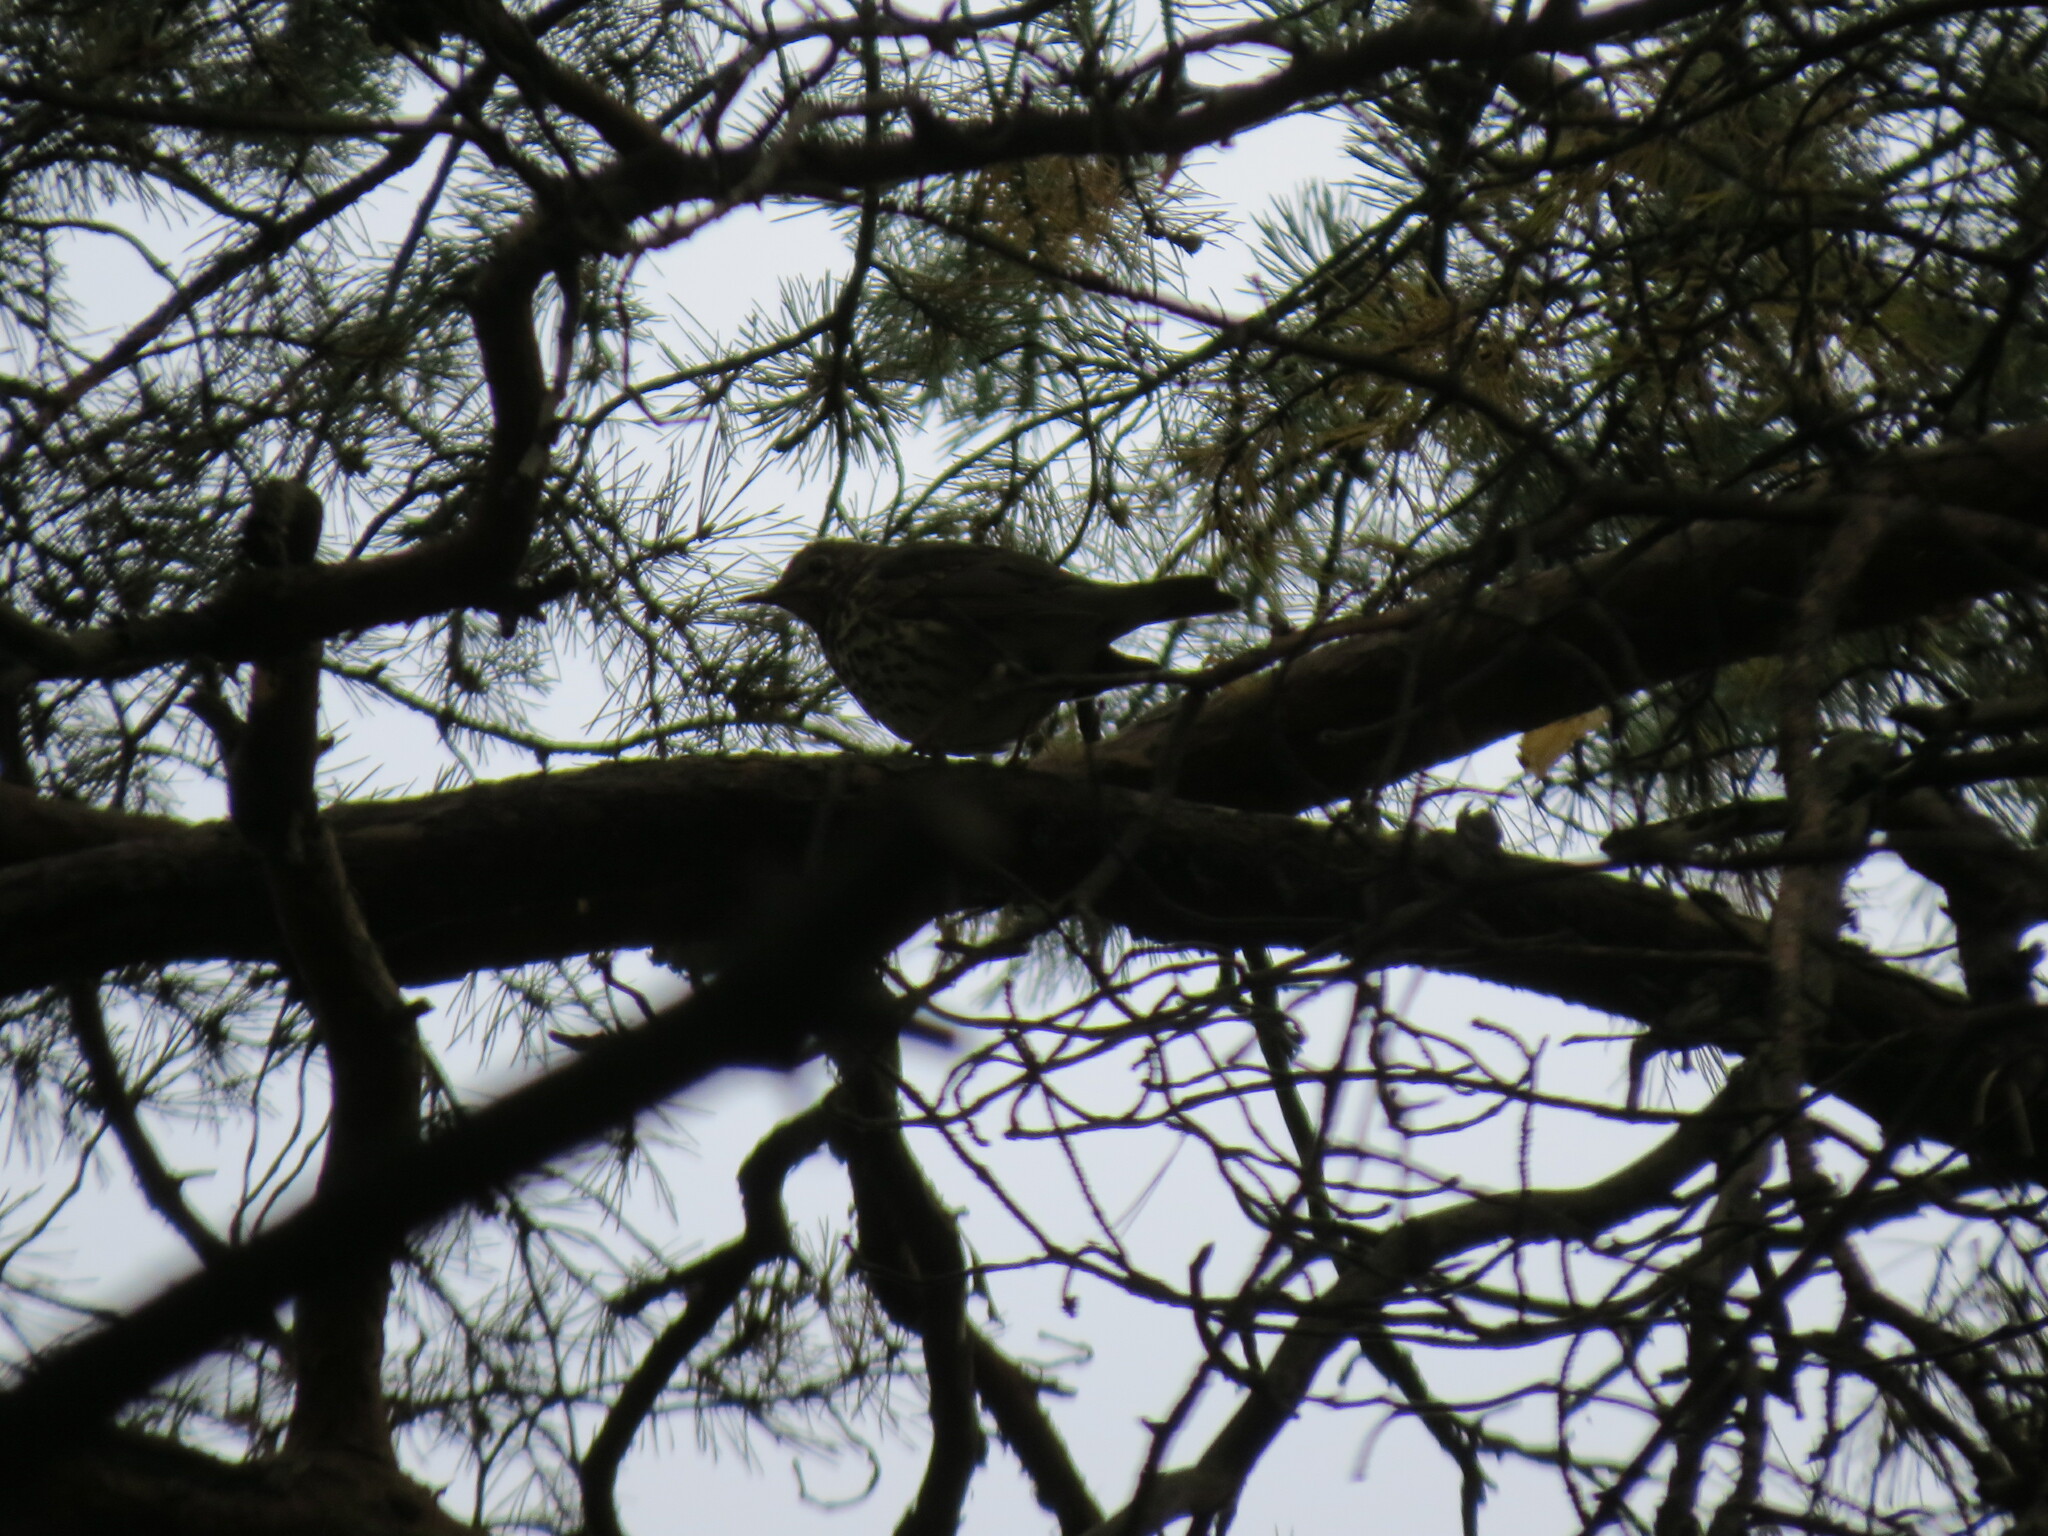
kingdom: Animalia
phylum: Chordata
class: Aves
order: Passeriformes
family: Turdidae
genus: Turdus
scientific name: Turdus philomelos
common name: Song thrush
